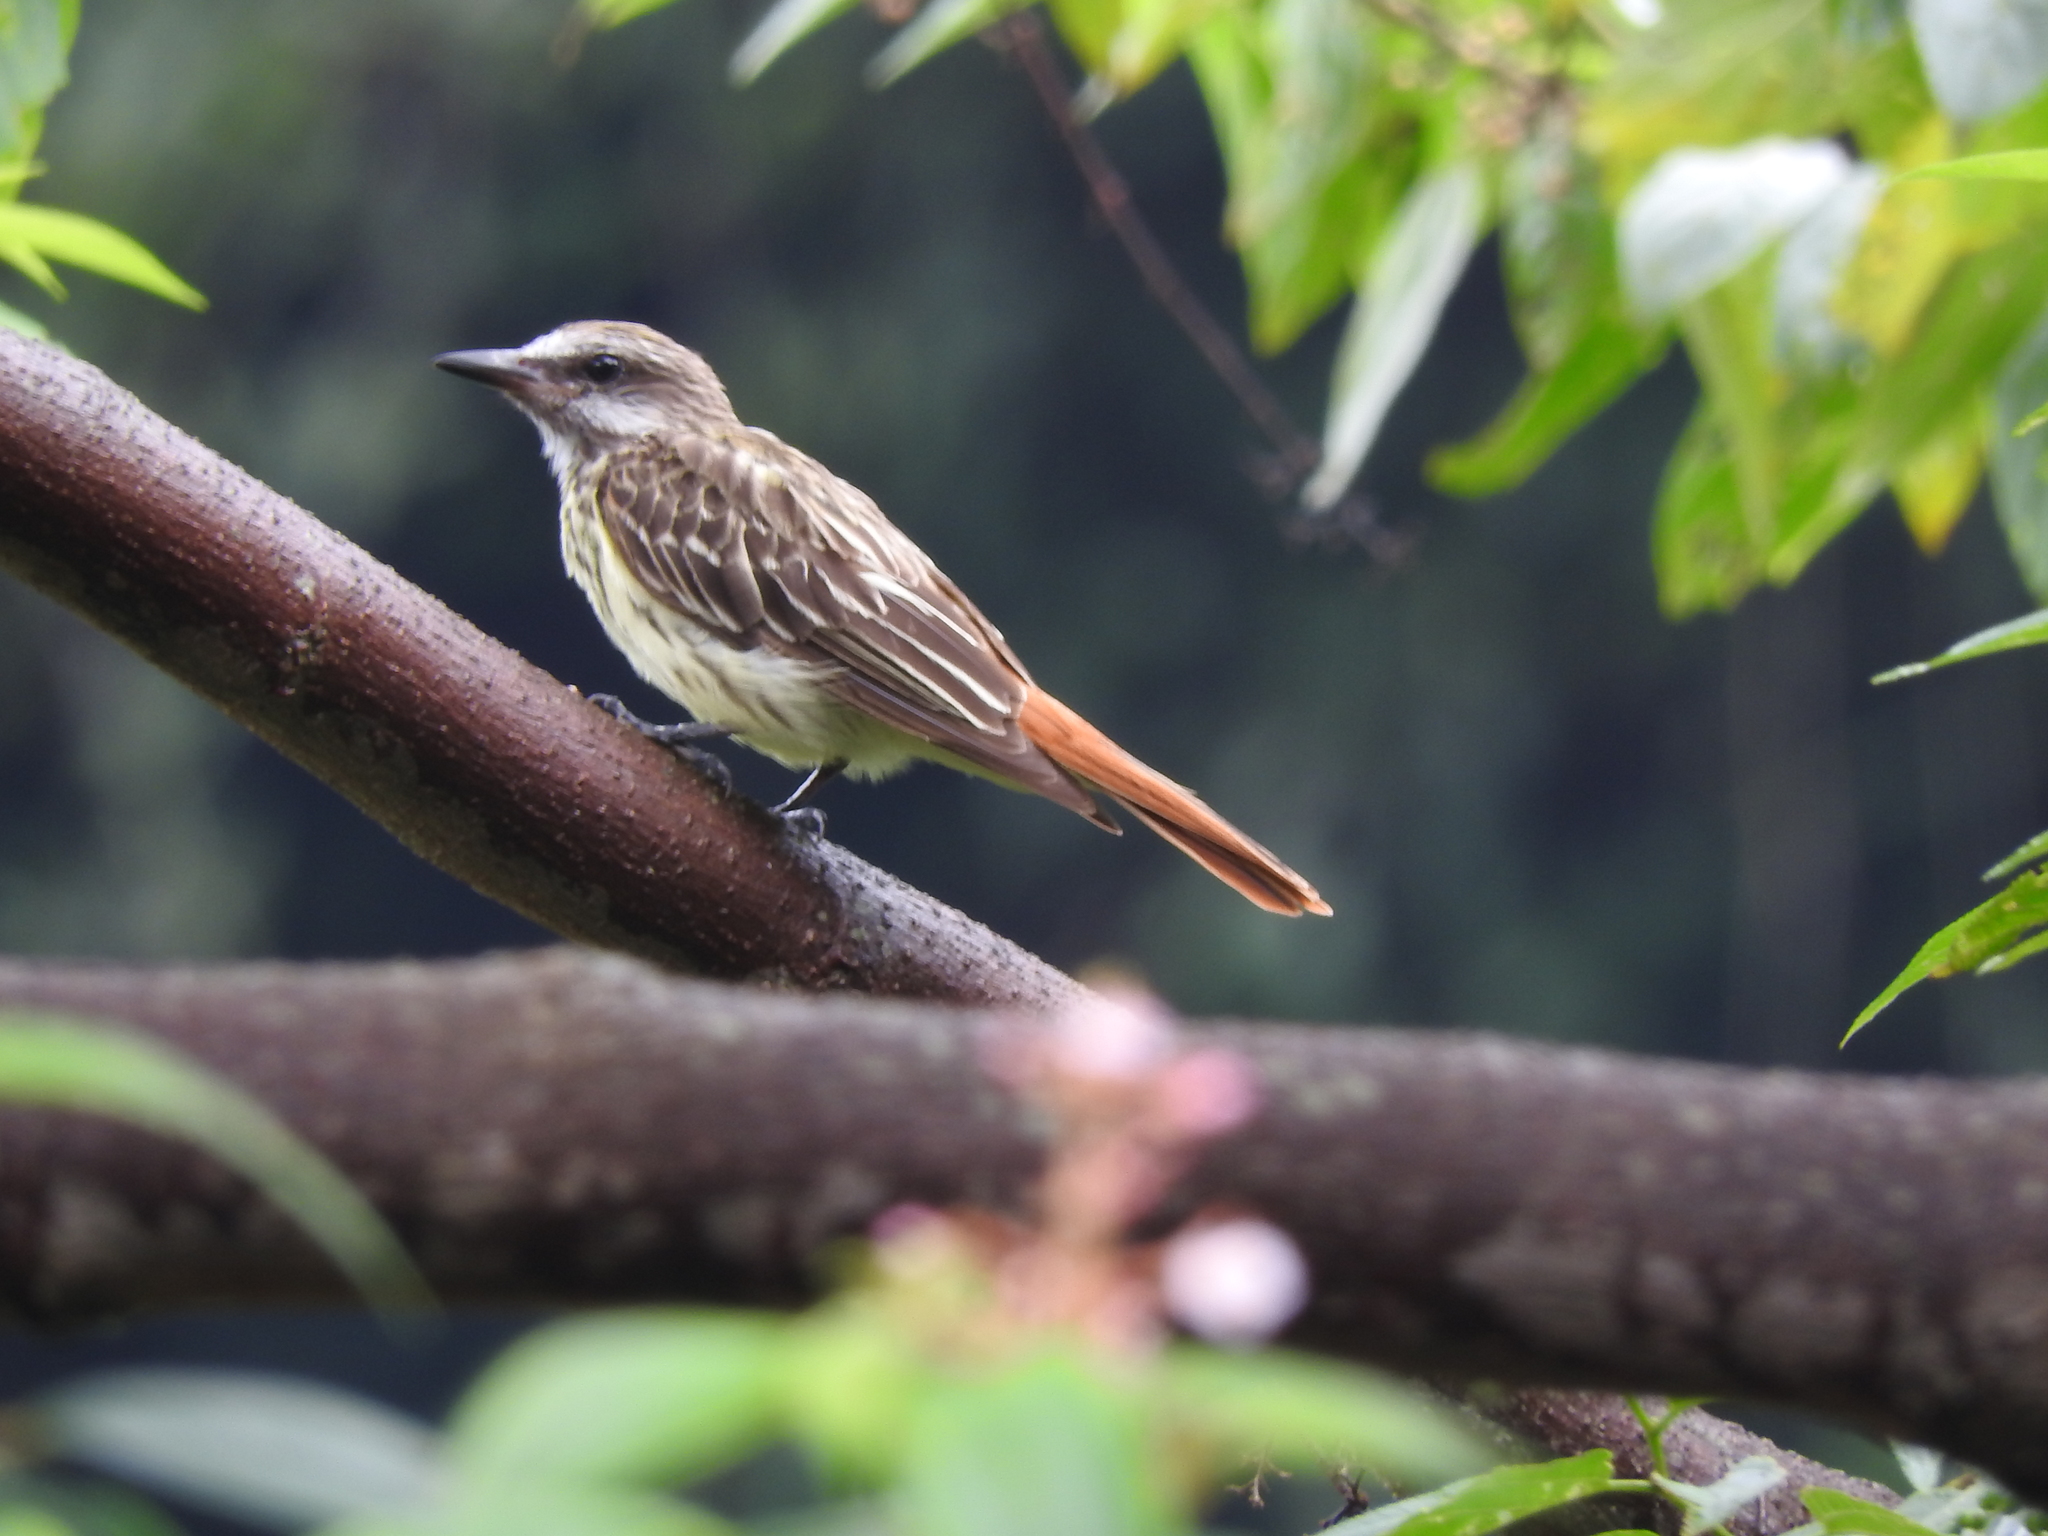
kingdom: Animalia
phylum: Chordata
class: Aves
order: Passeriformes
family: Tyrannidae
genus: Myiodynastes
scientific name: Myiodynastes luteiventris
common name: Sulphur-bellied flycatcher
